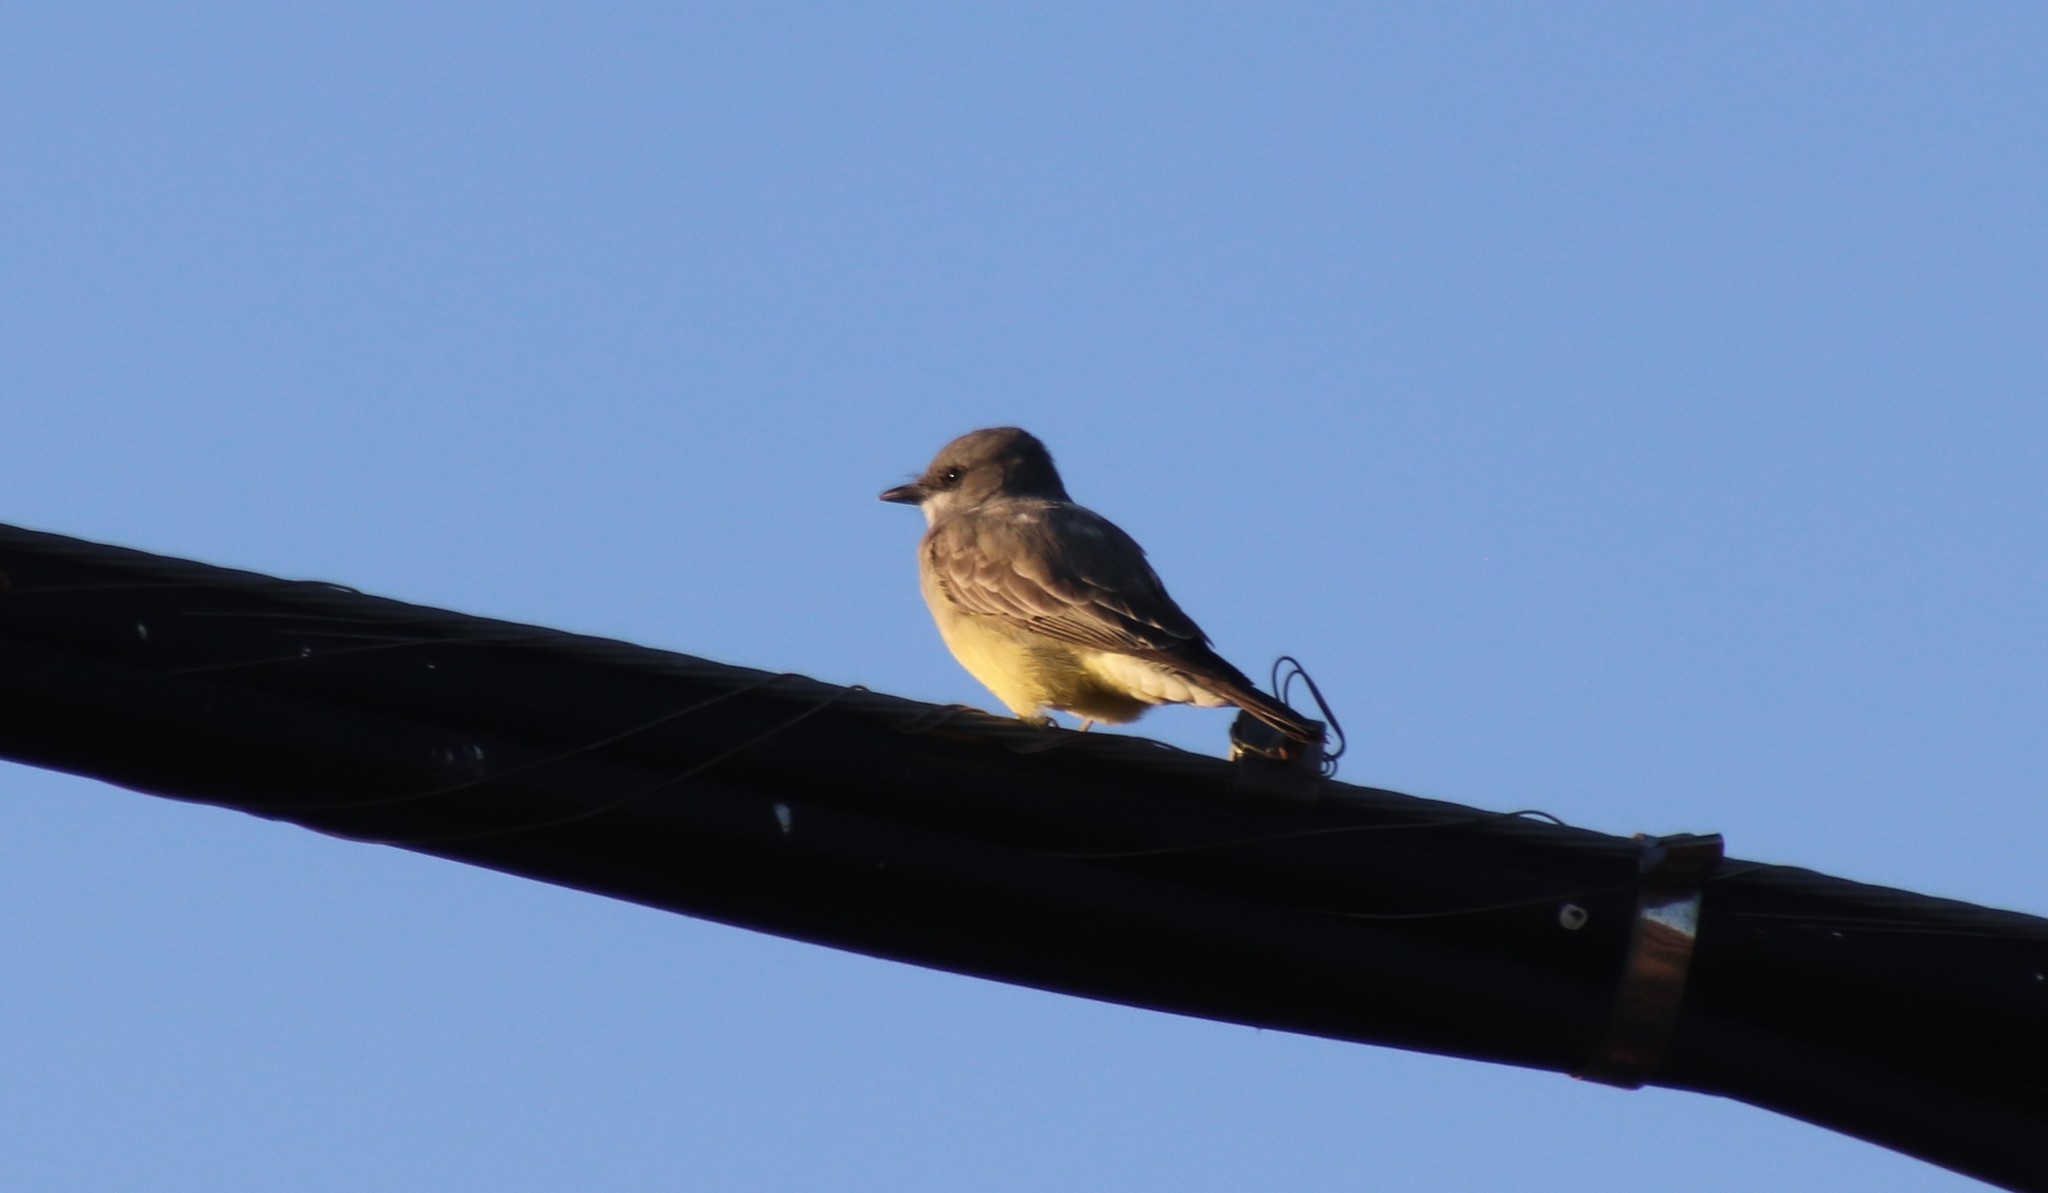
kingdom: Animalia
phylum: Chordata
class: Aves
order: Passeriformes
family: Tyrannidae
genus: Tyrannus
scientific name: Tyrannus vociferans
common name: Cassin's kingbird
